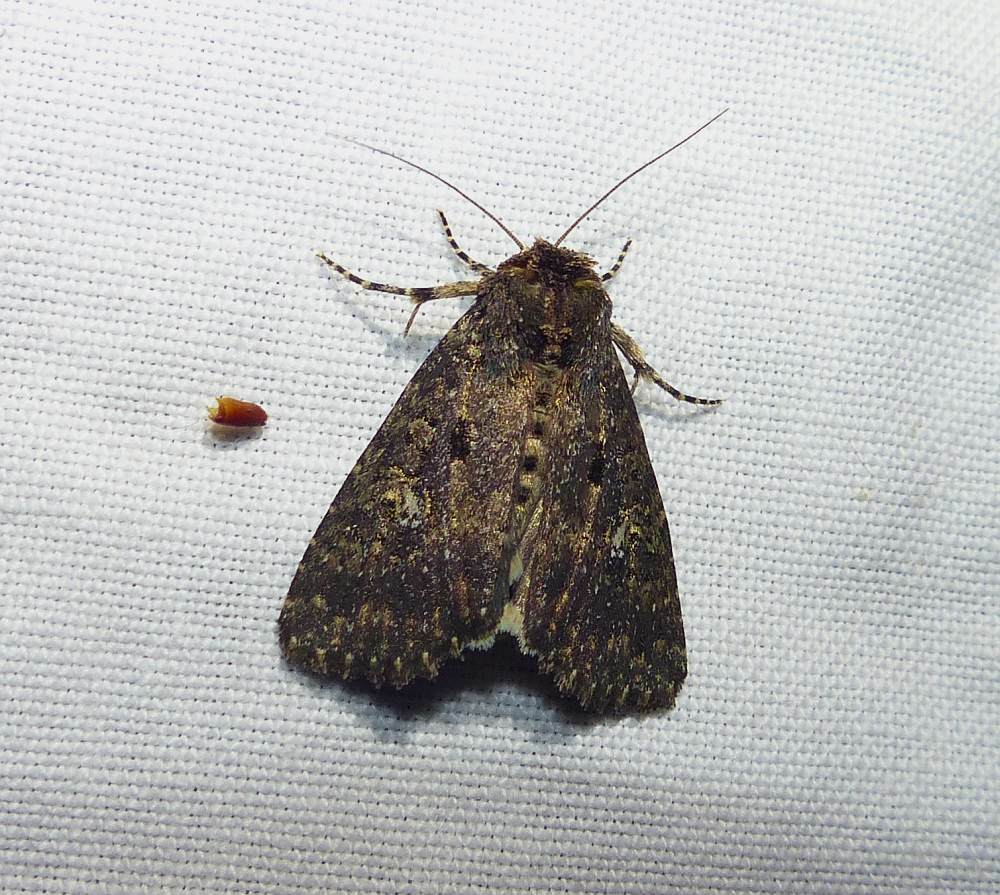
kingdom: Animalia
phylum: Arthropoda
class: Insecta
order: Lepidoptera
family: Noctuidae
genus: Condica
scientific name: Condica vecors
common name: Dusky groundling
